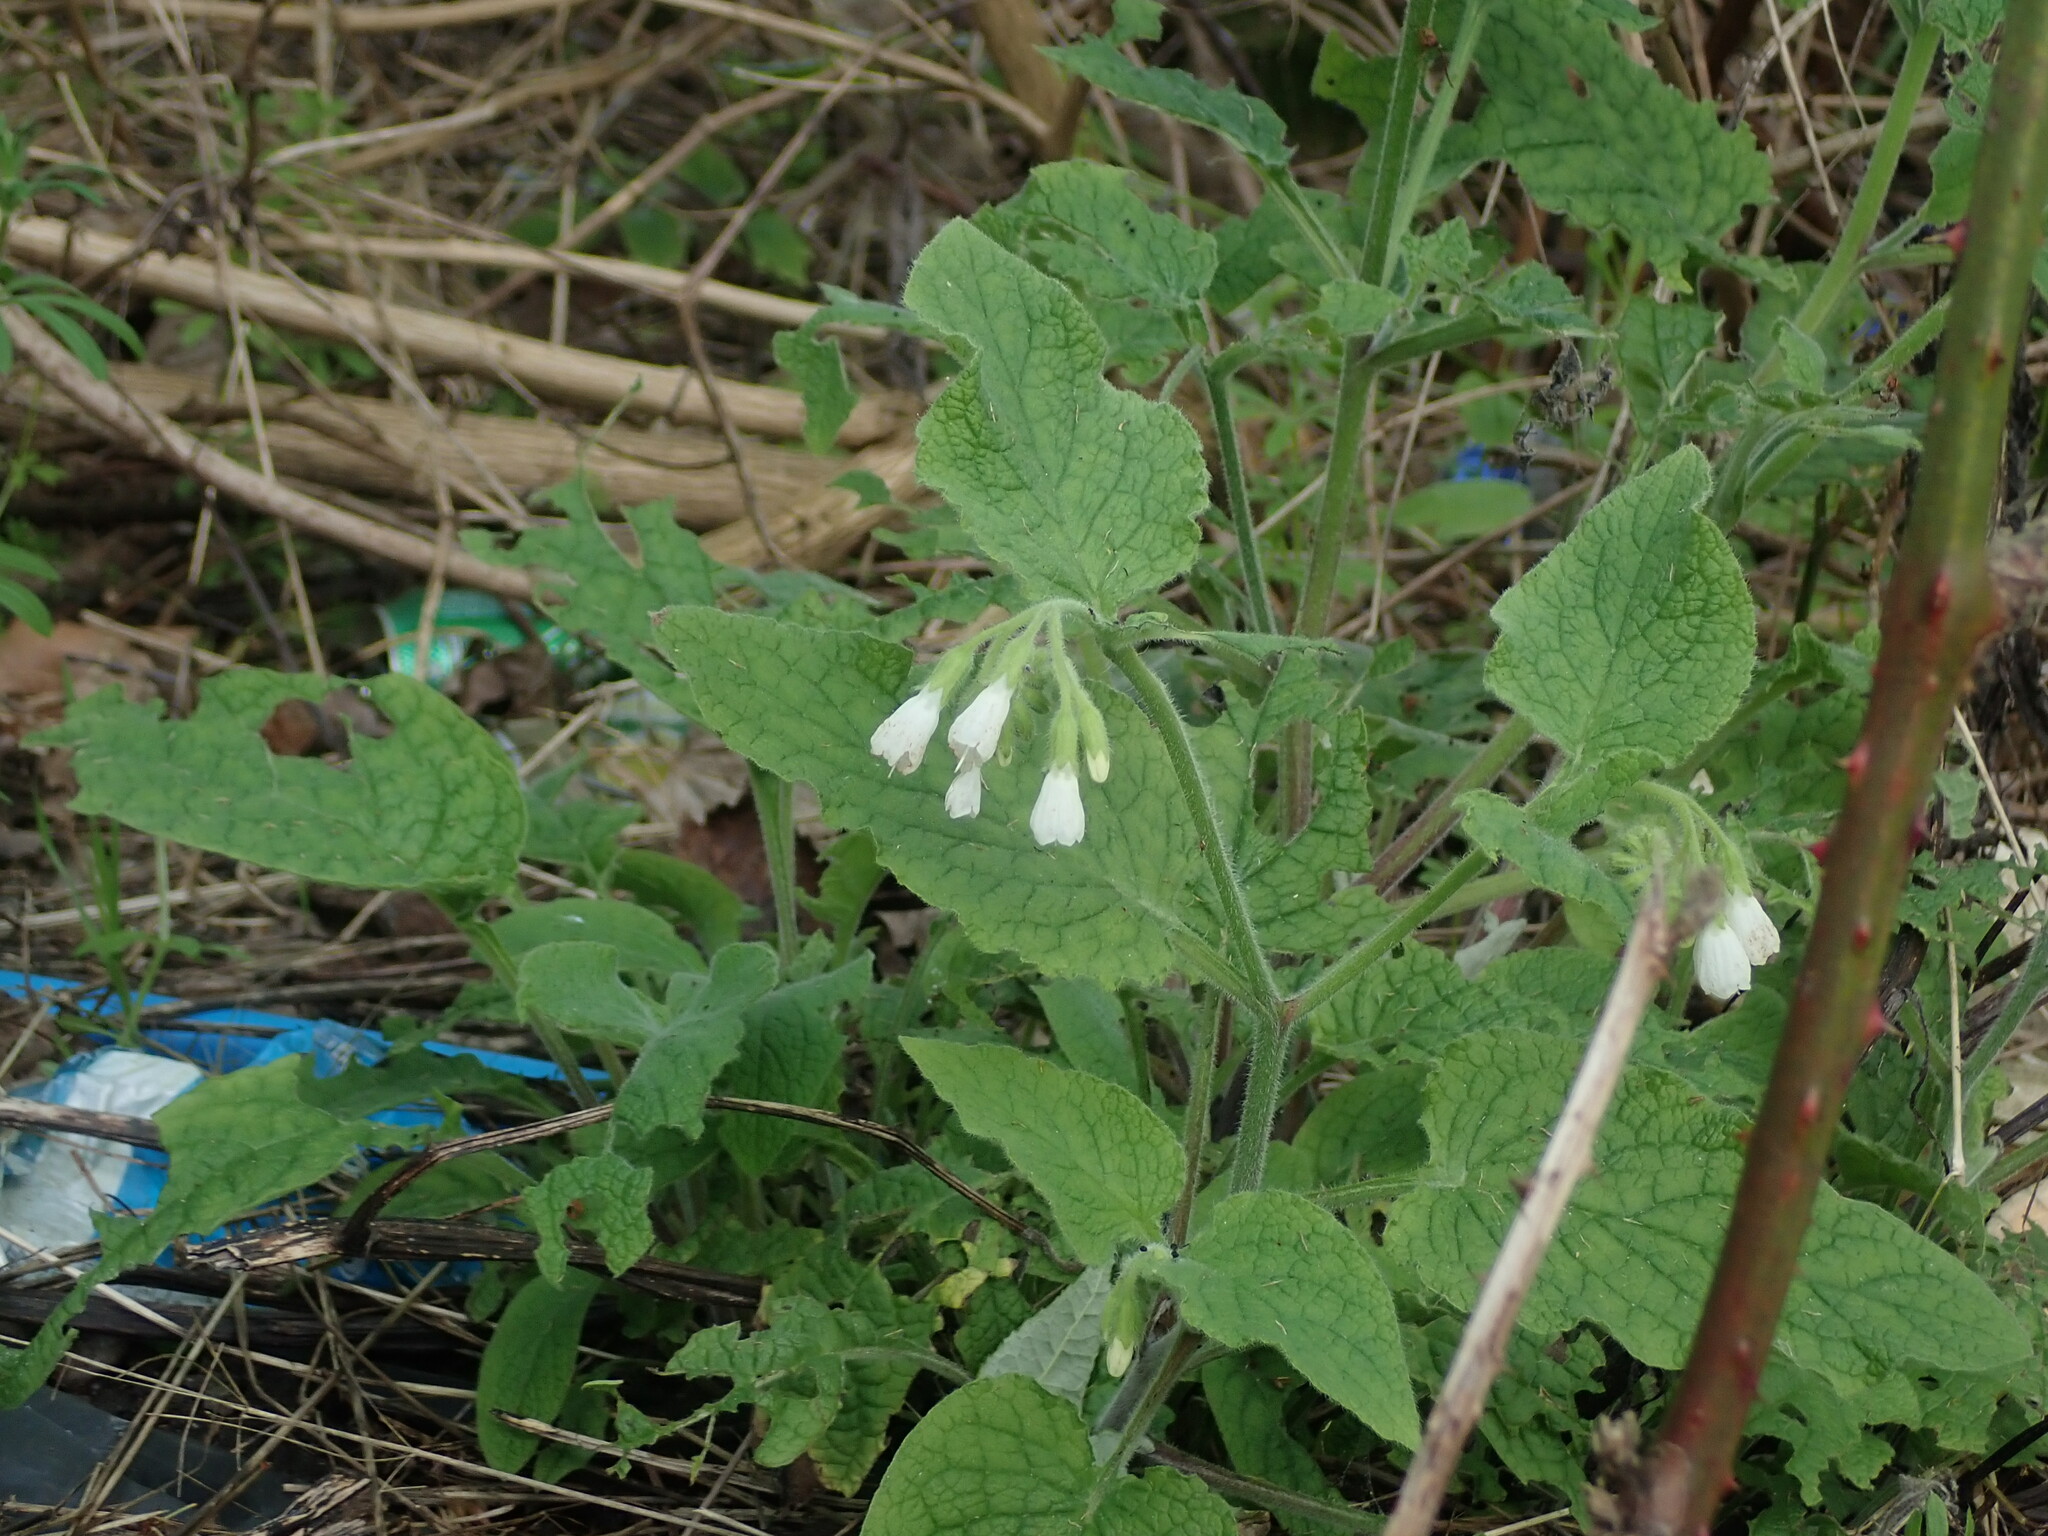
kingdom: Plantae
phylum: Tracheophyta
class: Magnoliopsida
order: Boraginales
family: Boraginaceae
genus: Symphytum
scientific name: Symphytum orientale
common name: White comfrey
